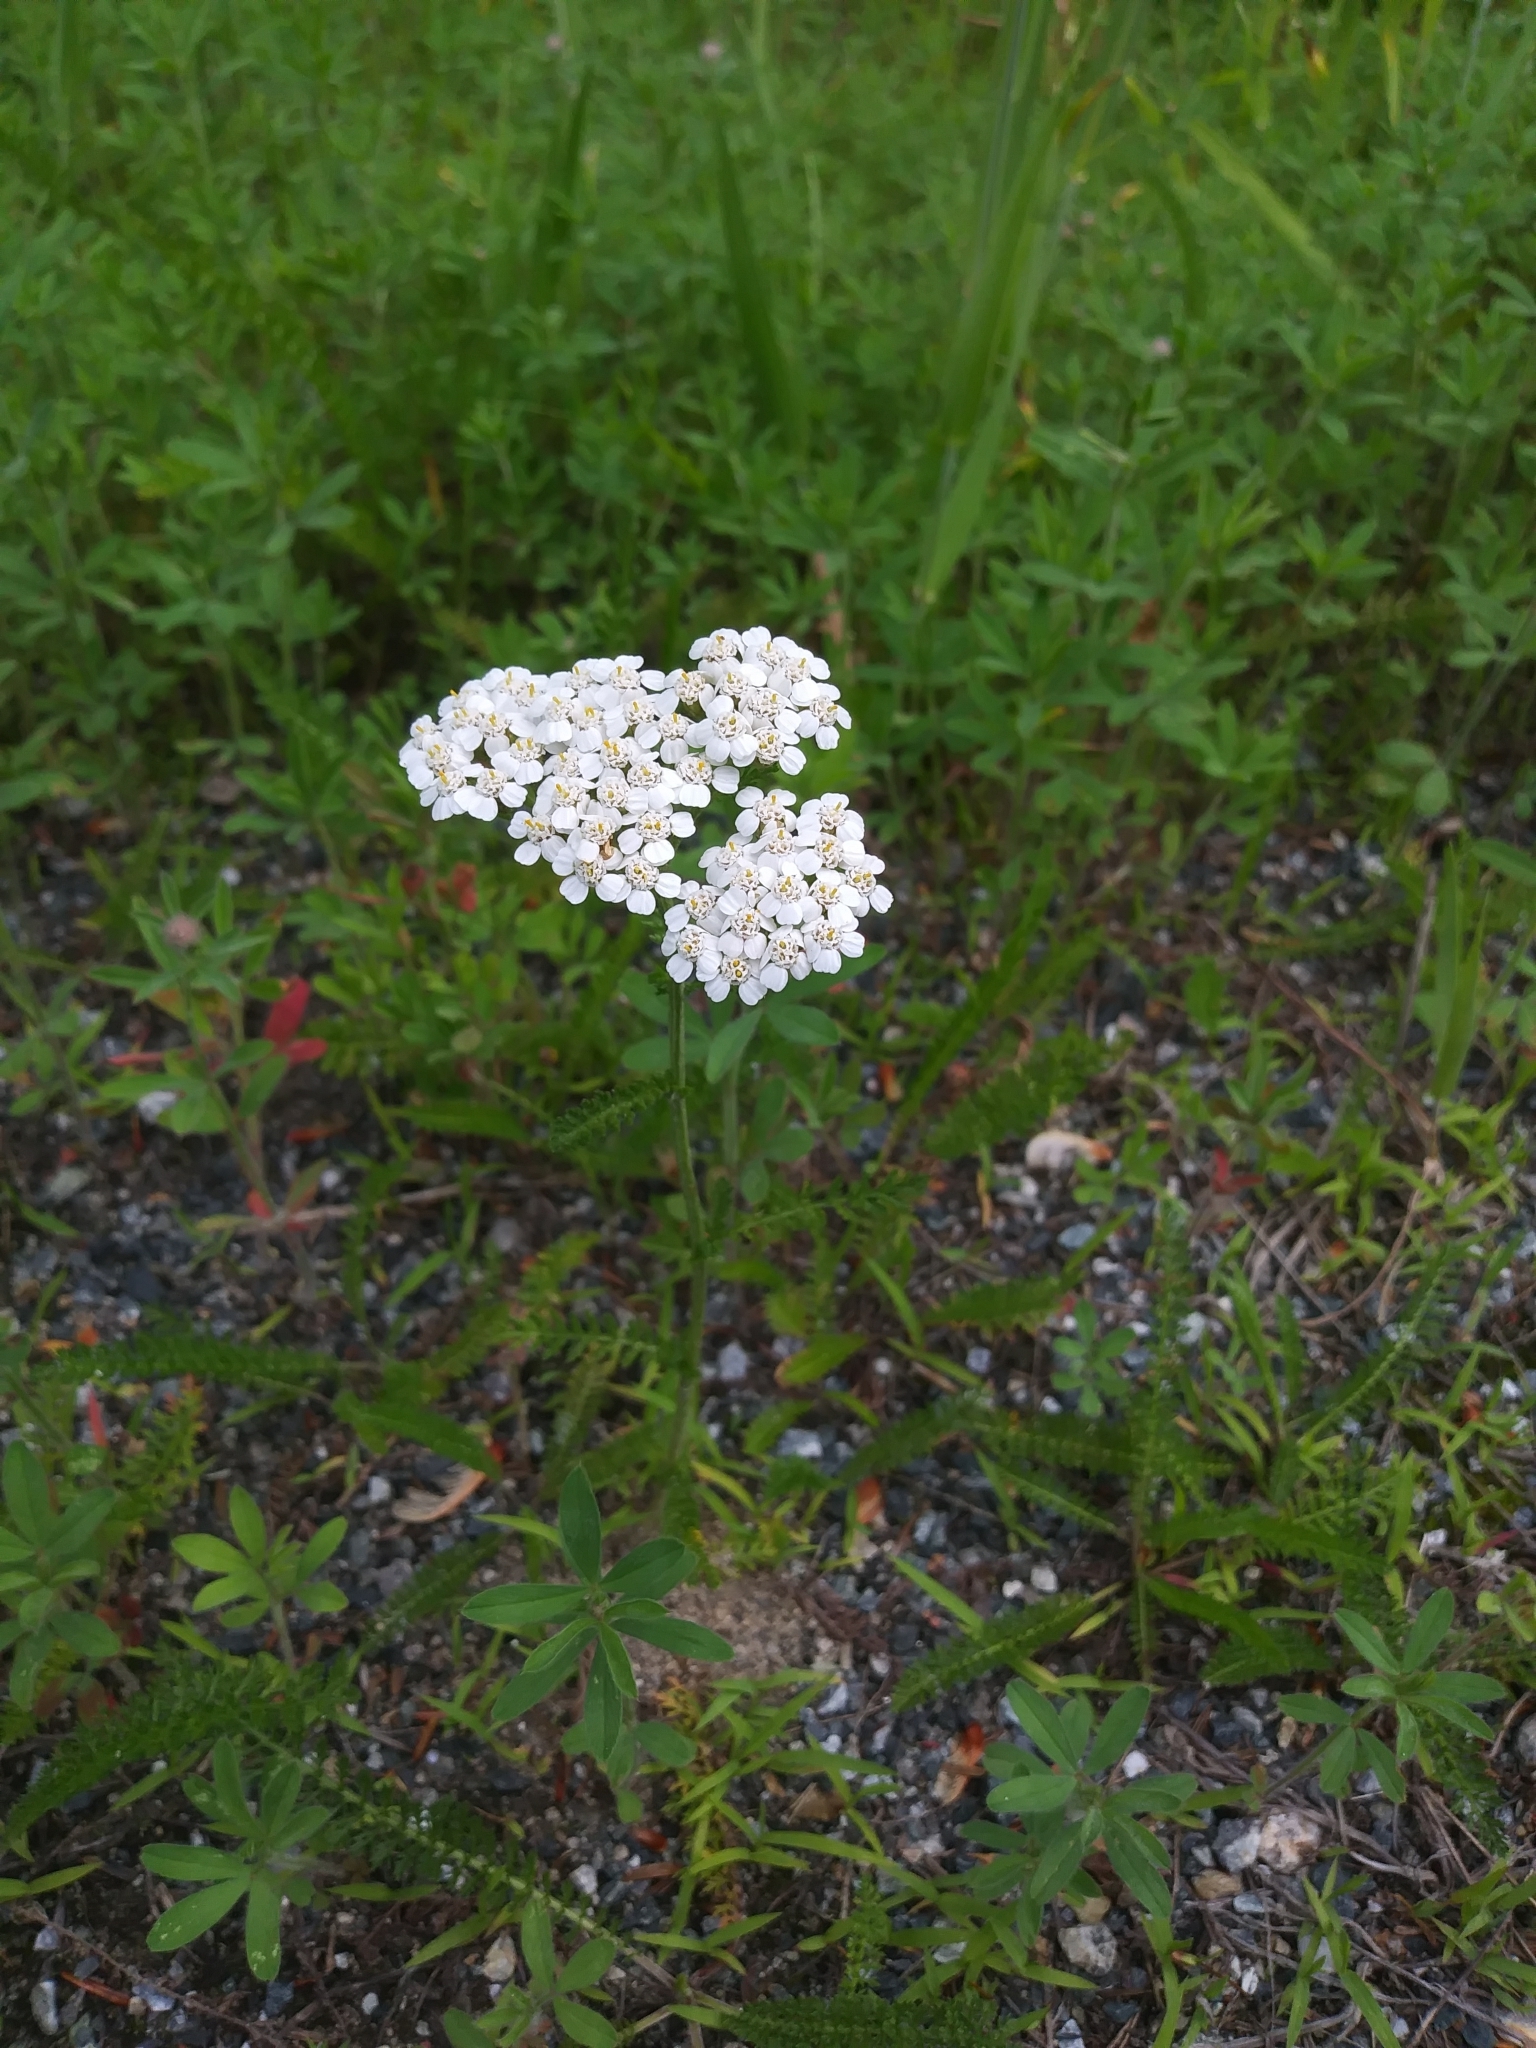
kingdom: Plantae
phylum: Tracheophyta
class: Magnoliopsida
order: Asterales
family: Asteraceae
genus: Achillea
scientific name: Achillea millefolium
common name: Yarrow
